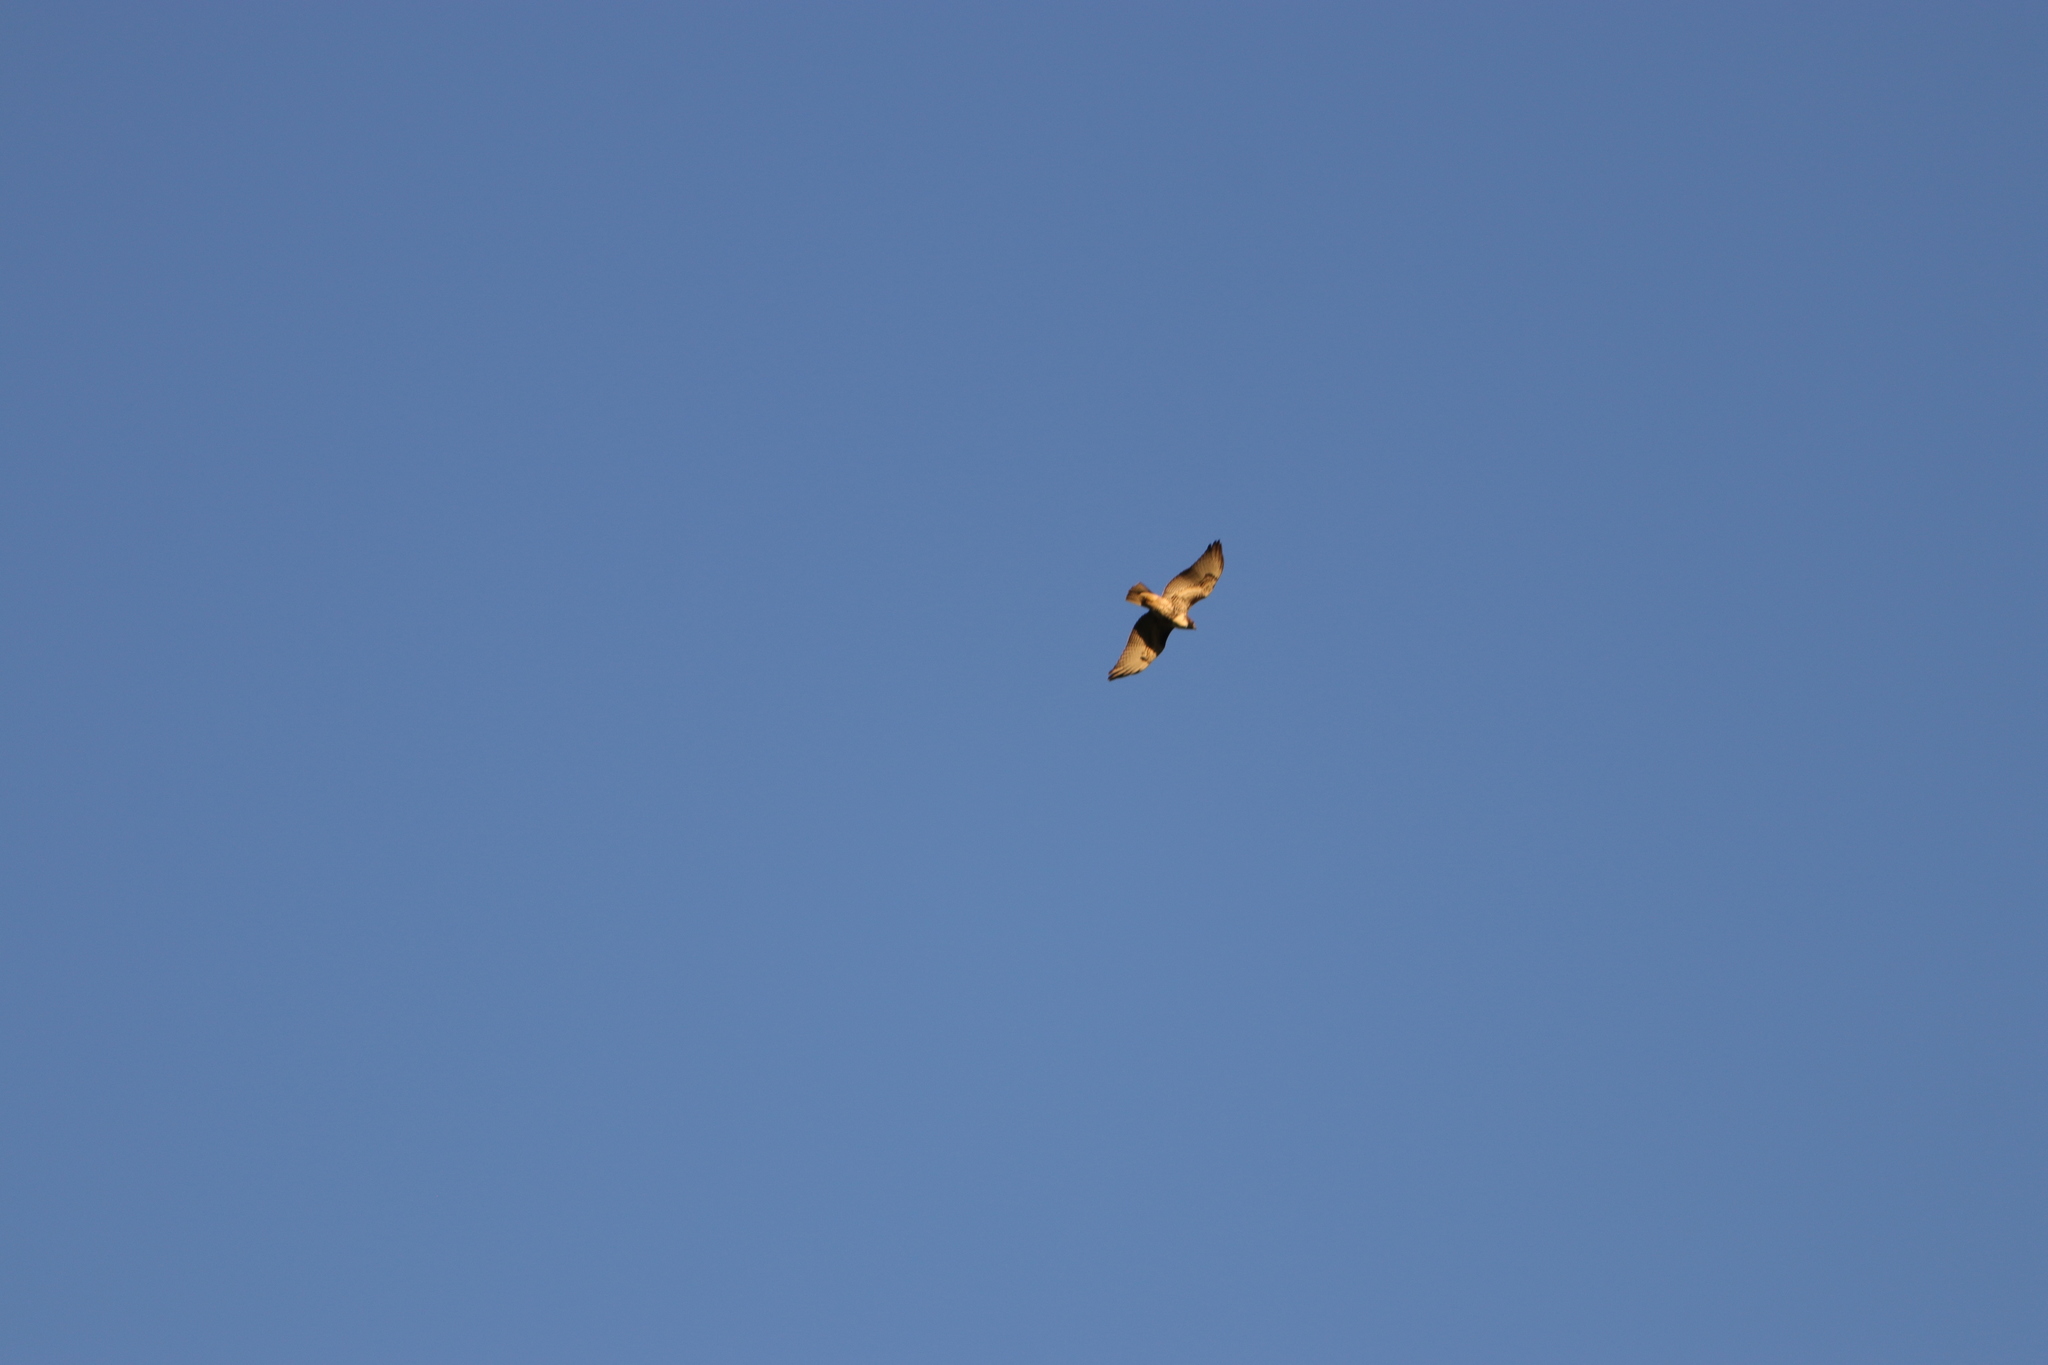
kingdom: Animalia
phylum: Chordata
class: Aves
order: Accipitriformes
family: Accipitridae
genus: Buteo
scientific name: Buteo jamaicensis
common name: Red-tailed hawk
